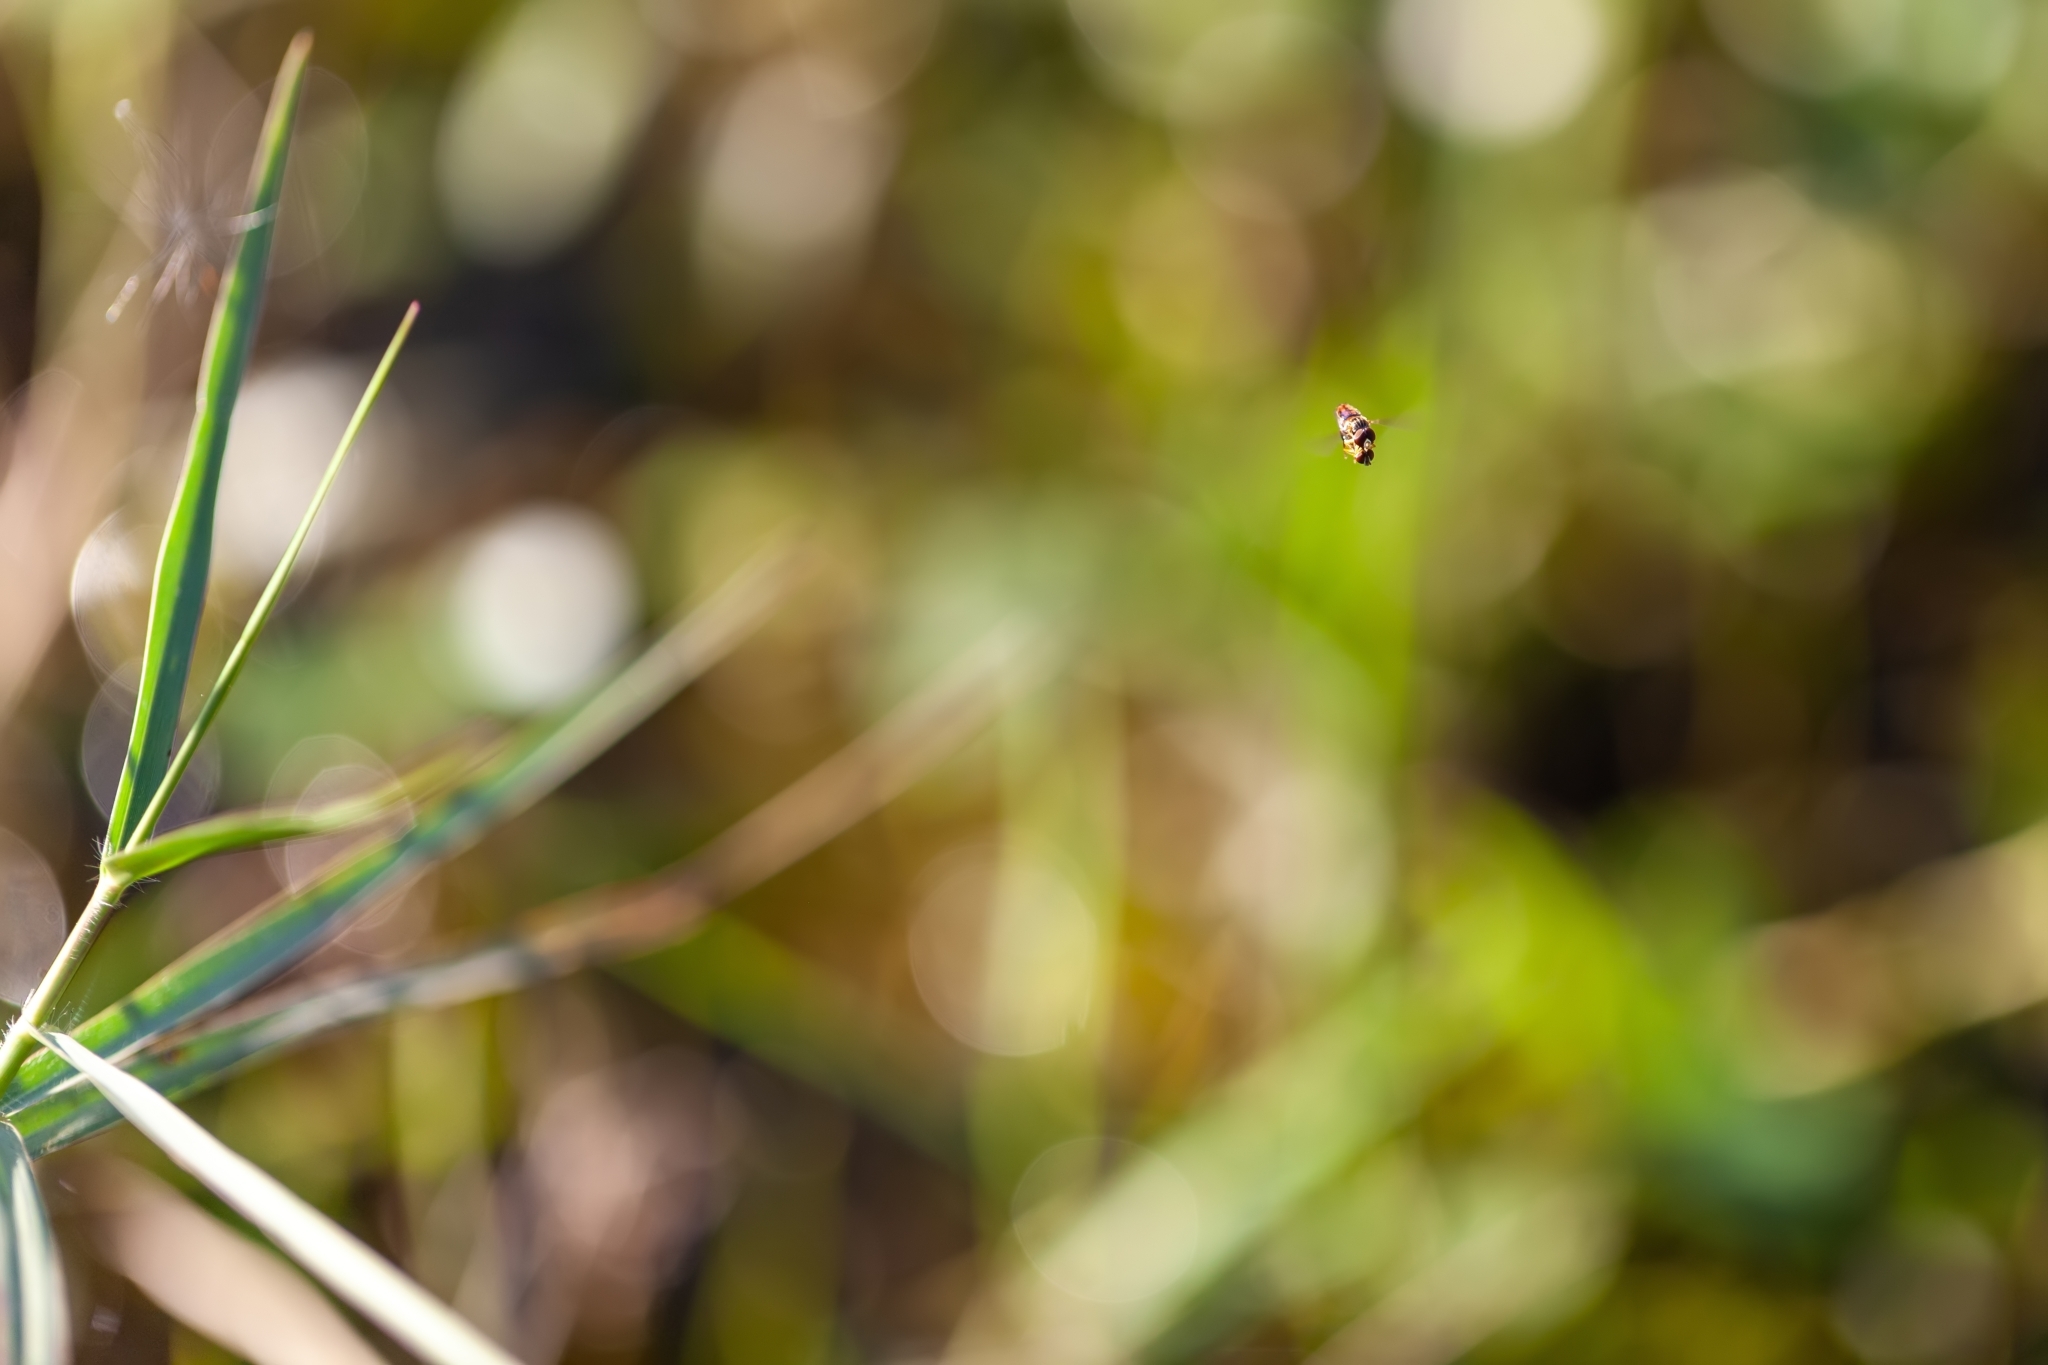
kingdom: Animalia
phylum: Arthropoda
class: Insecta
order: Diptera
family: Syrphidae
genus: Toxomerus
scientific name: Toxomerus boscii
